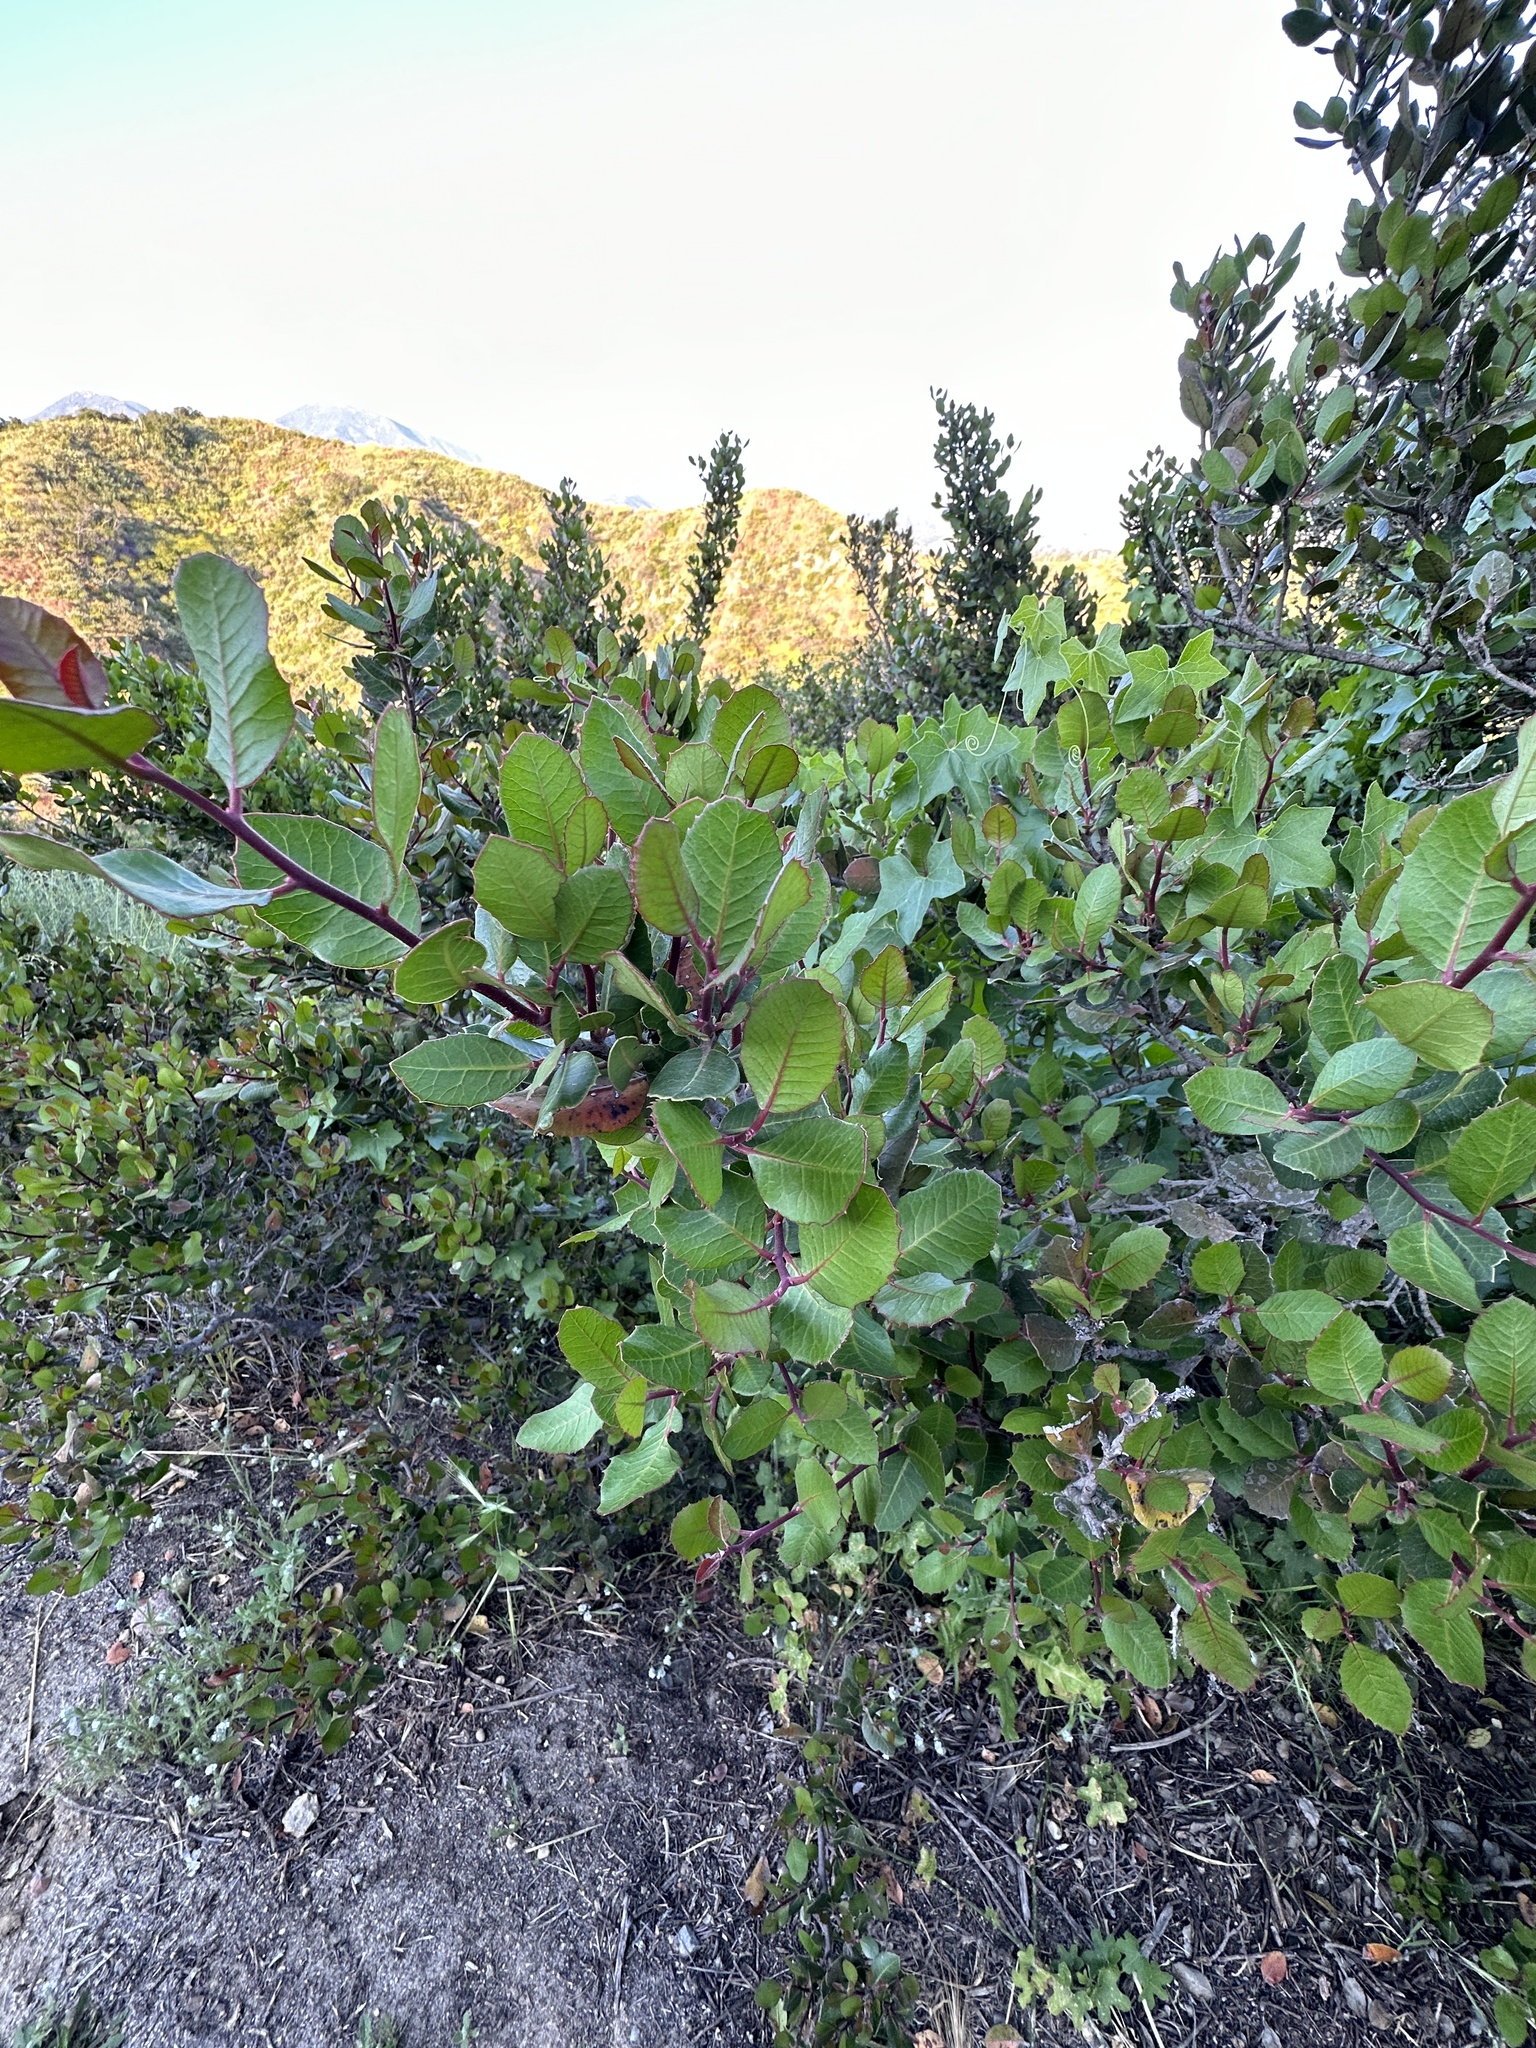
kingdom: Plantae
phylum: Tracheophyta
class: Magnoliopsida
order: Sapindales
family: Anacardiaceae
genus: Rhus
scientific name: Rhus integrifolia
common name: Lemonade sumac
